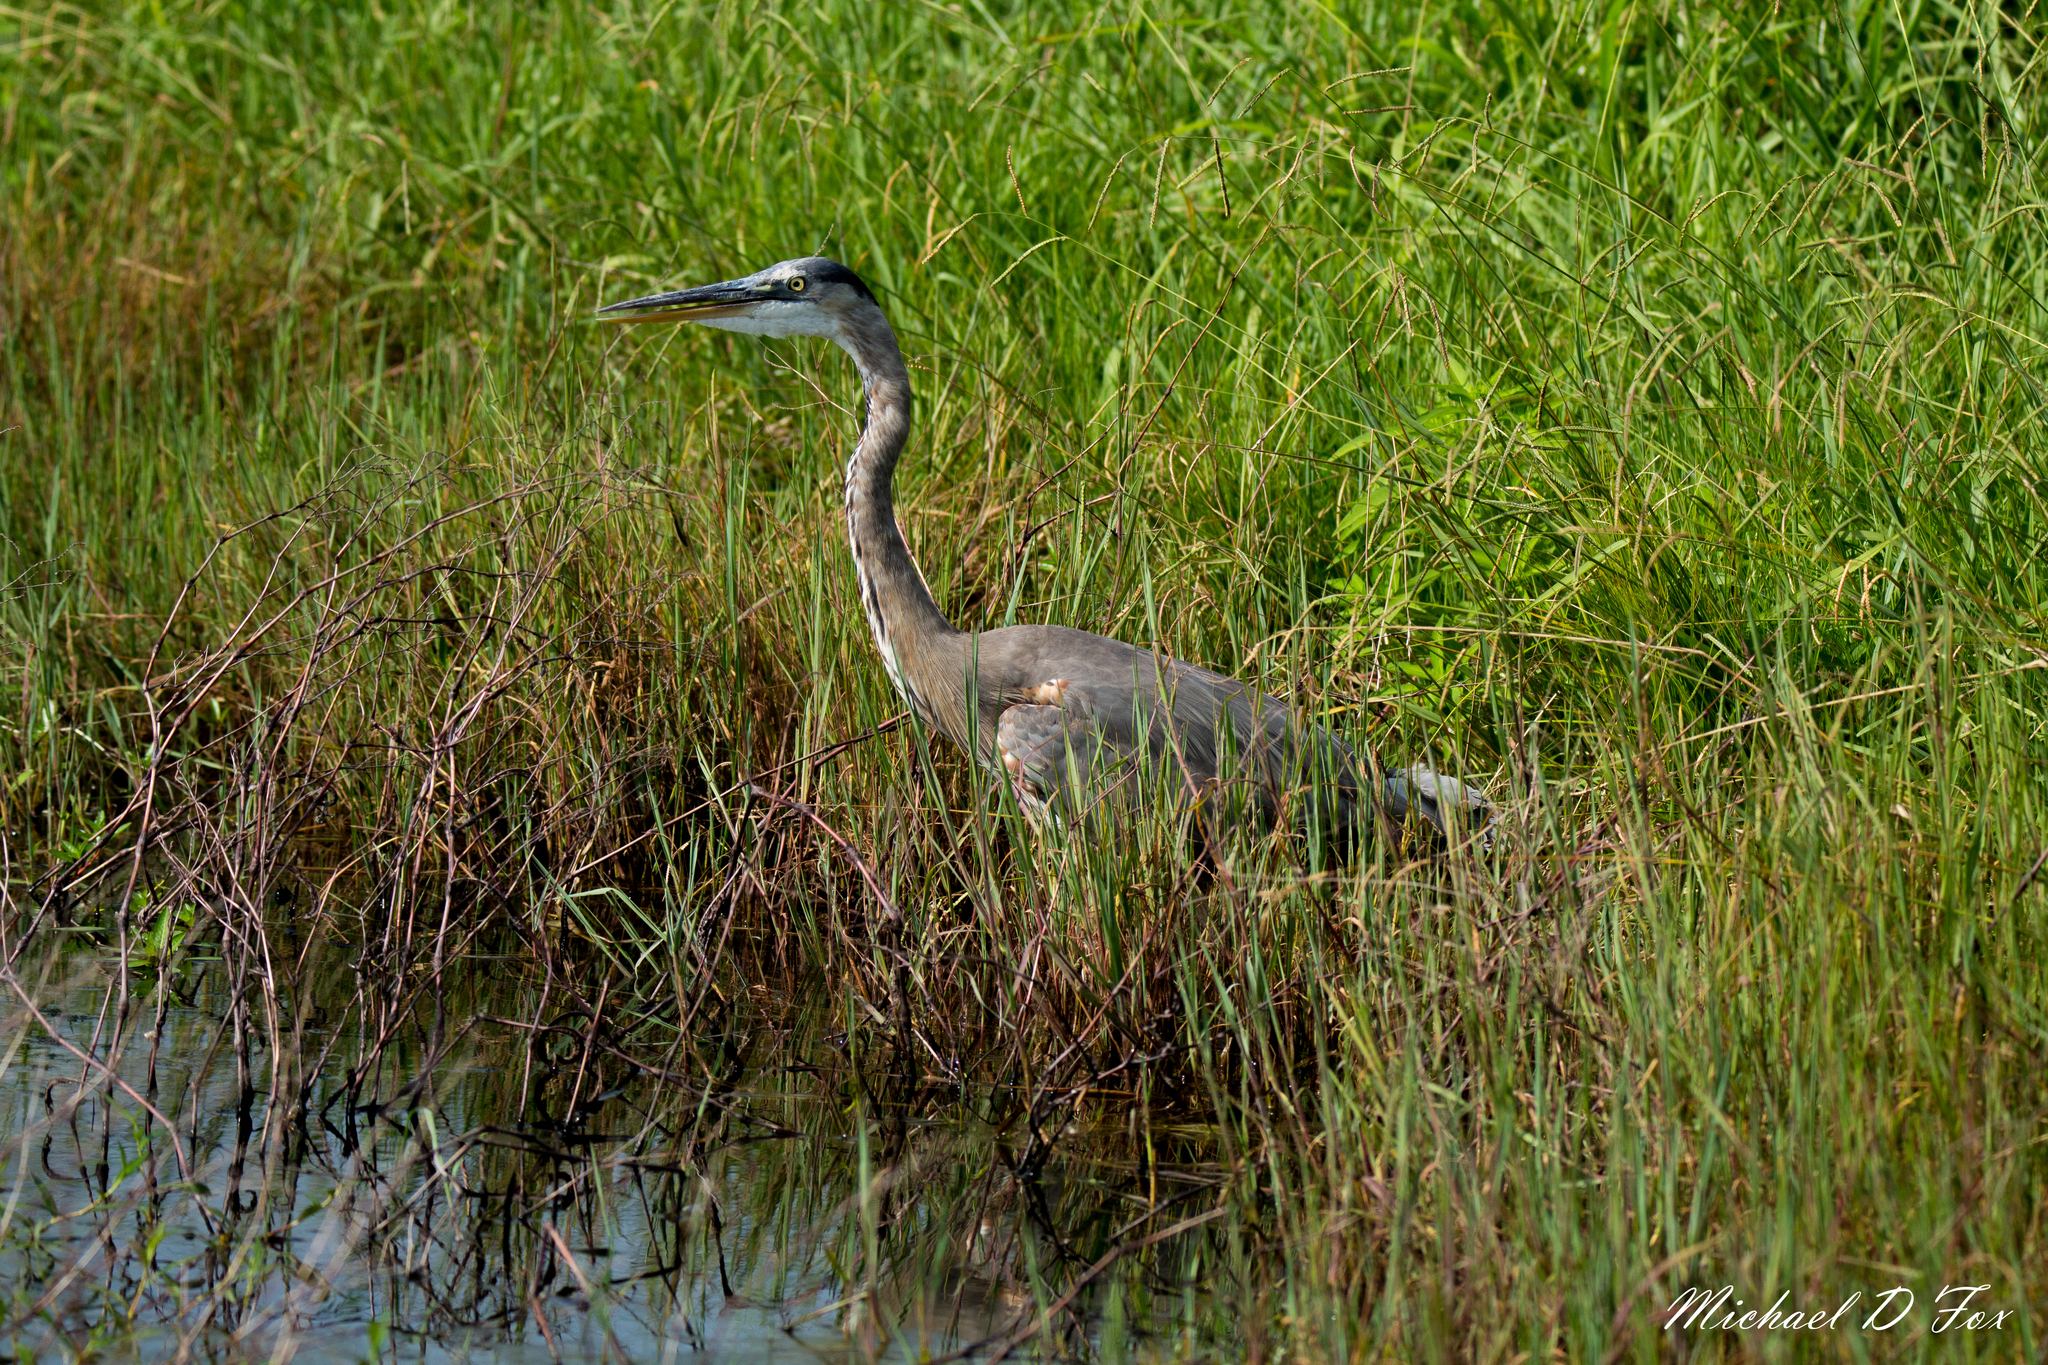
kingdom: Animalia
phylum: Chordata
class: Aves
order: Pelecaniformes
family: Ardeidae
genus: Ardea
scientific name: Ardea herodias
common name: Great blue heron
